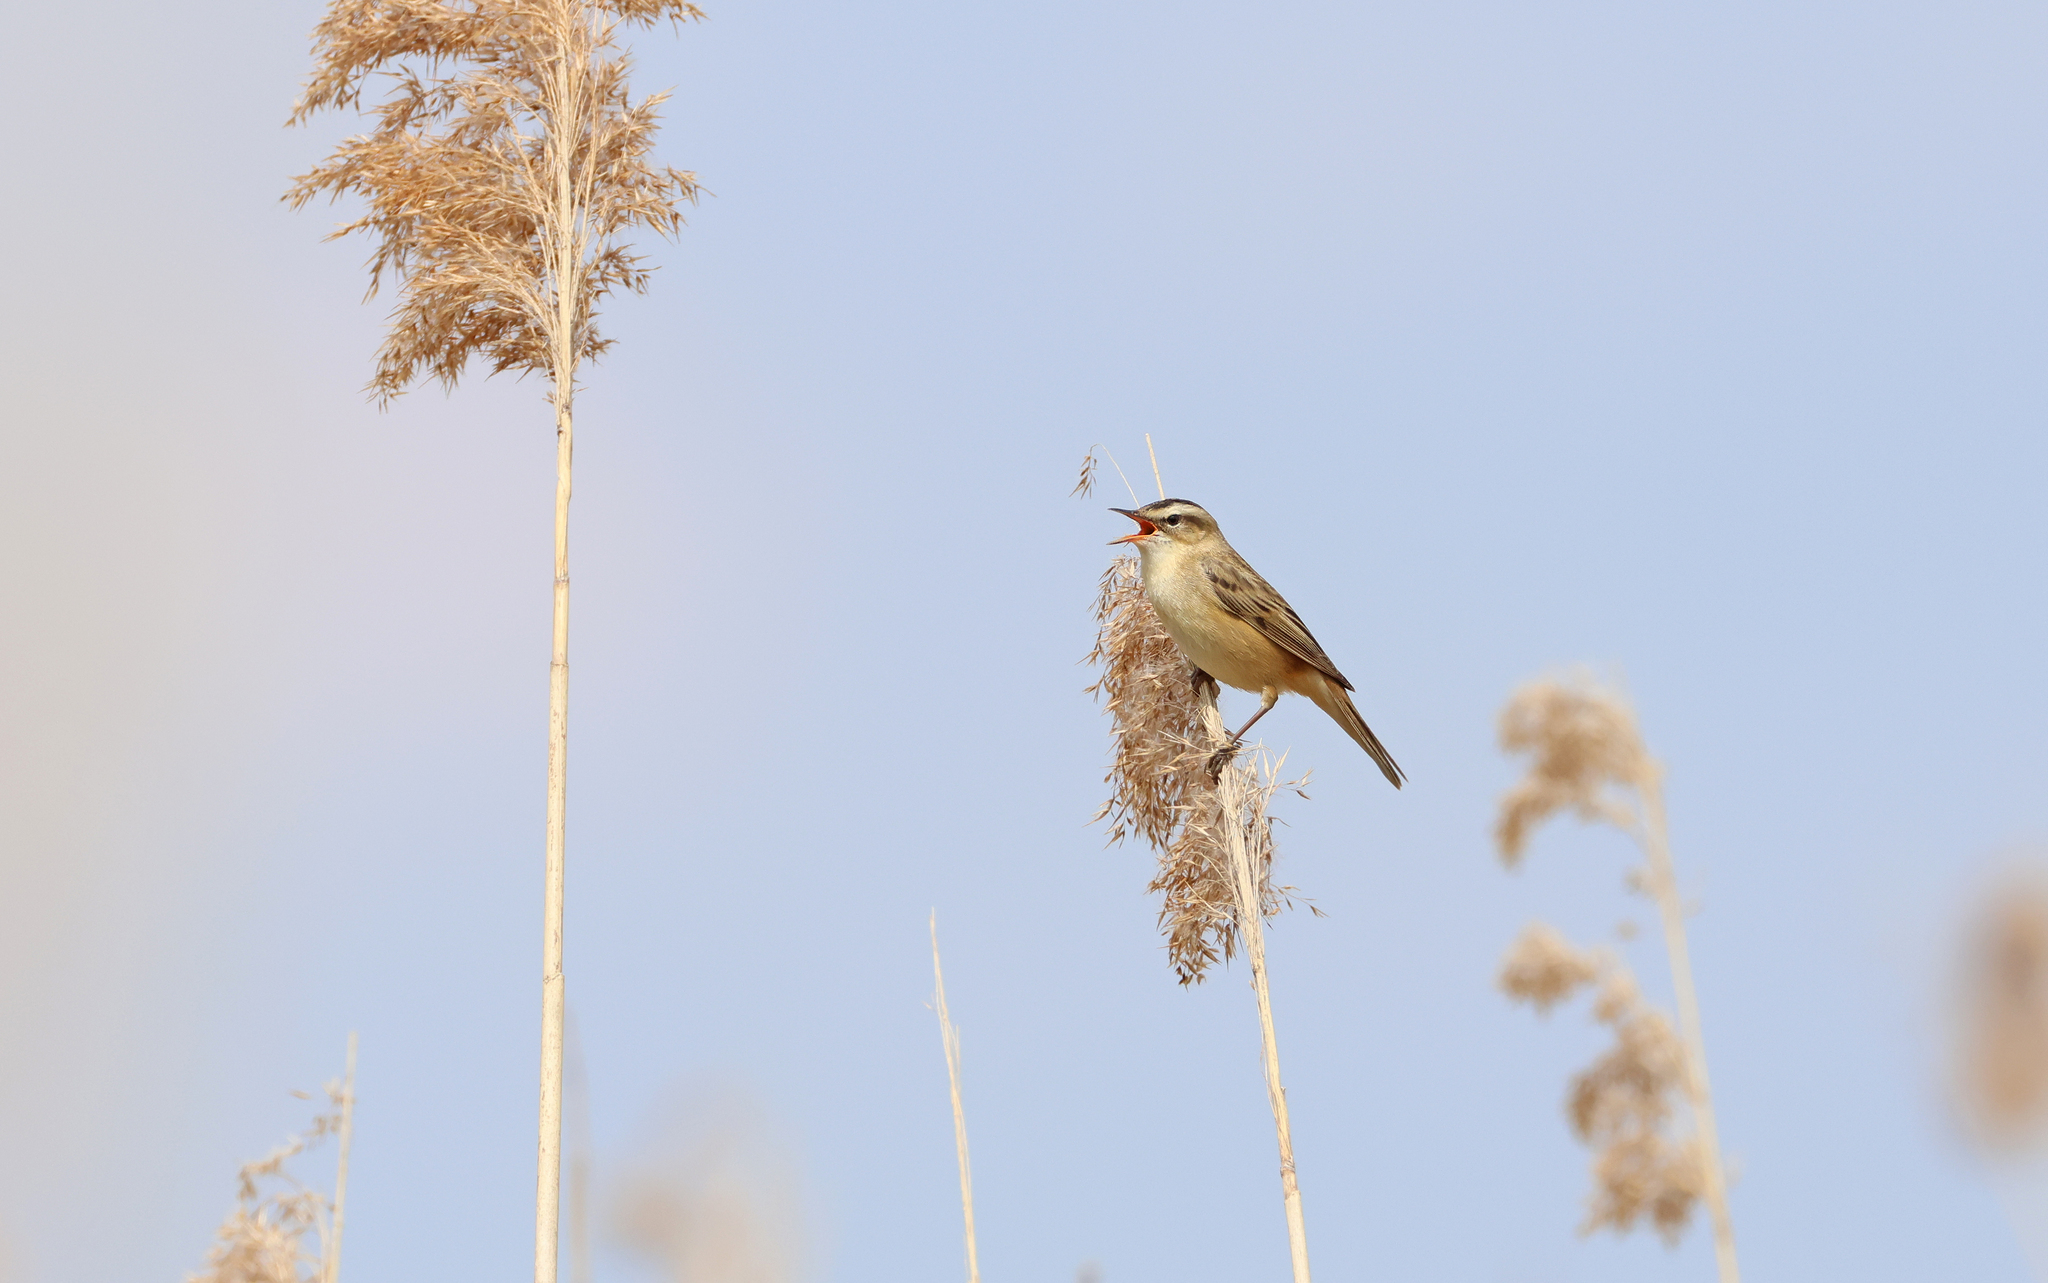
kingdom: Animalia
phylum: Chordata
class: Aves
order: Passeriformes
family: Acrocephalidae
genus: Acrocephalus
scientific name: Acrocephalus schoenobaenus
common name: Sedge warbler
